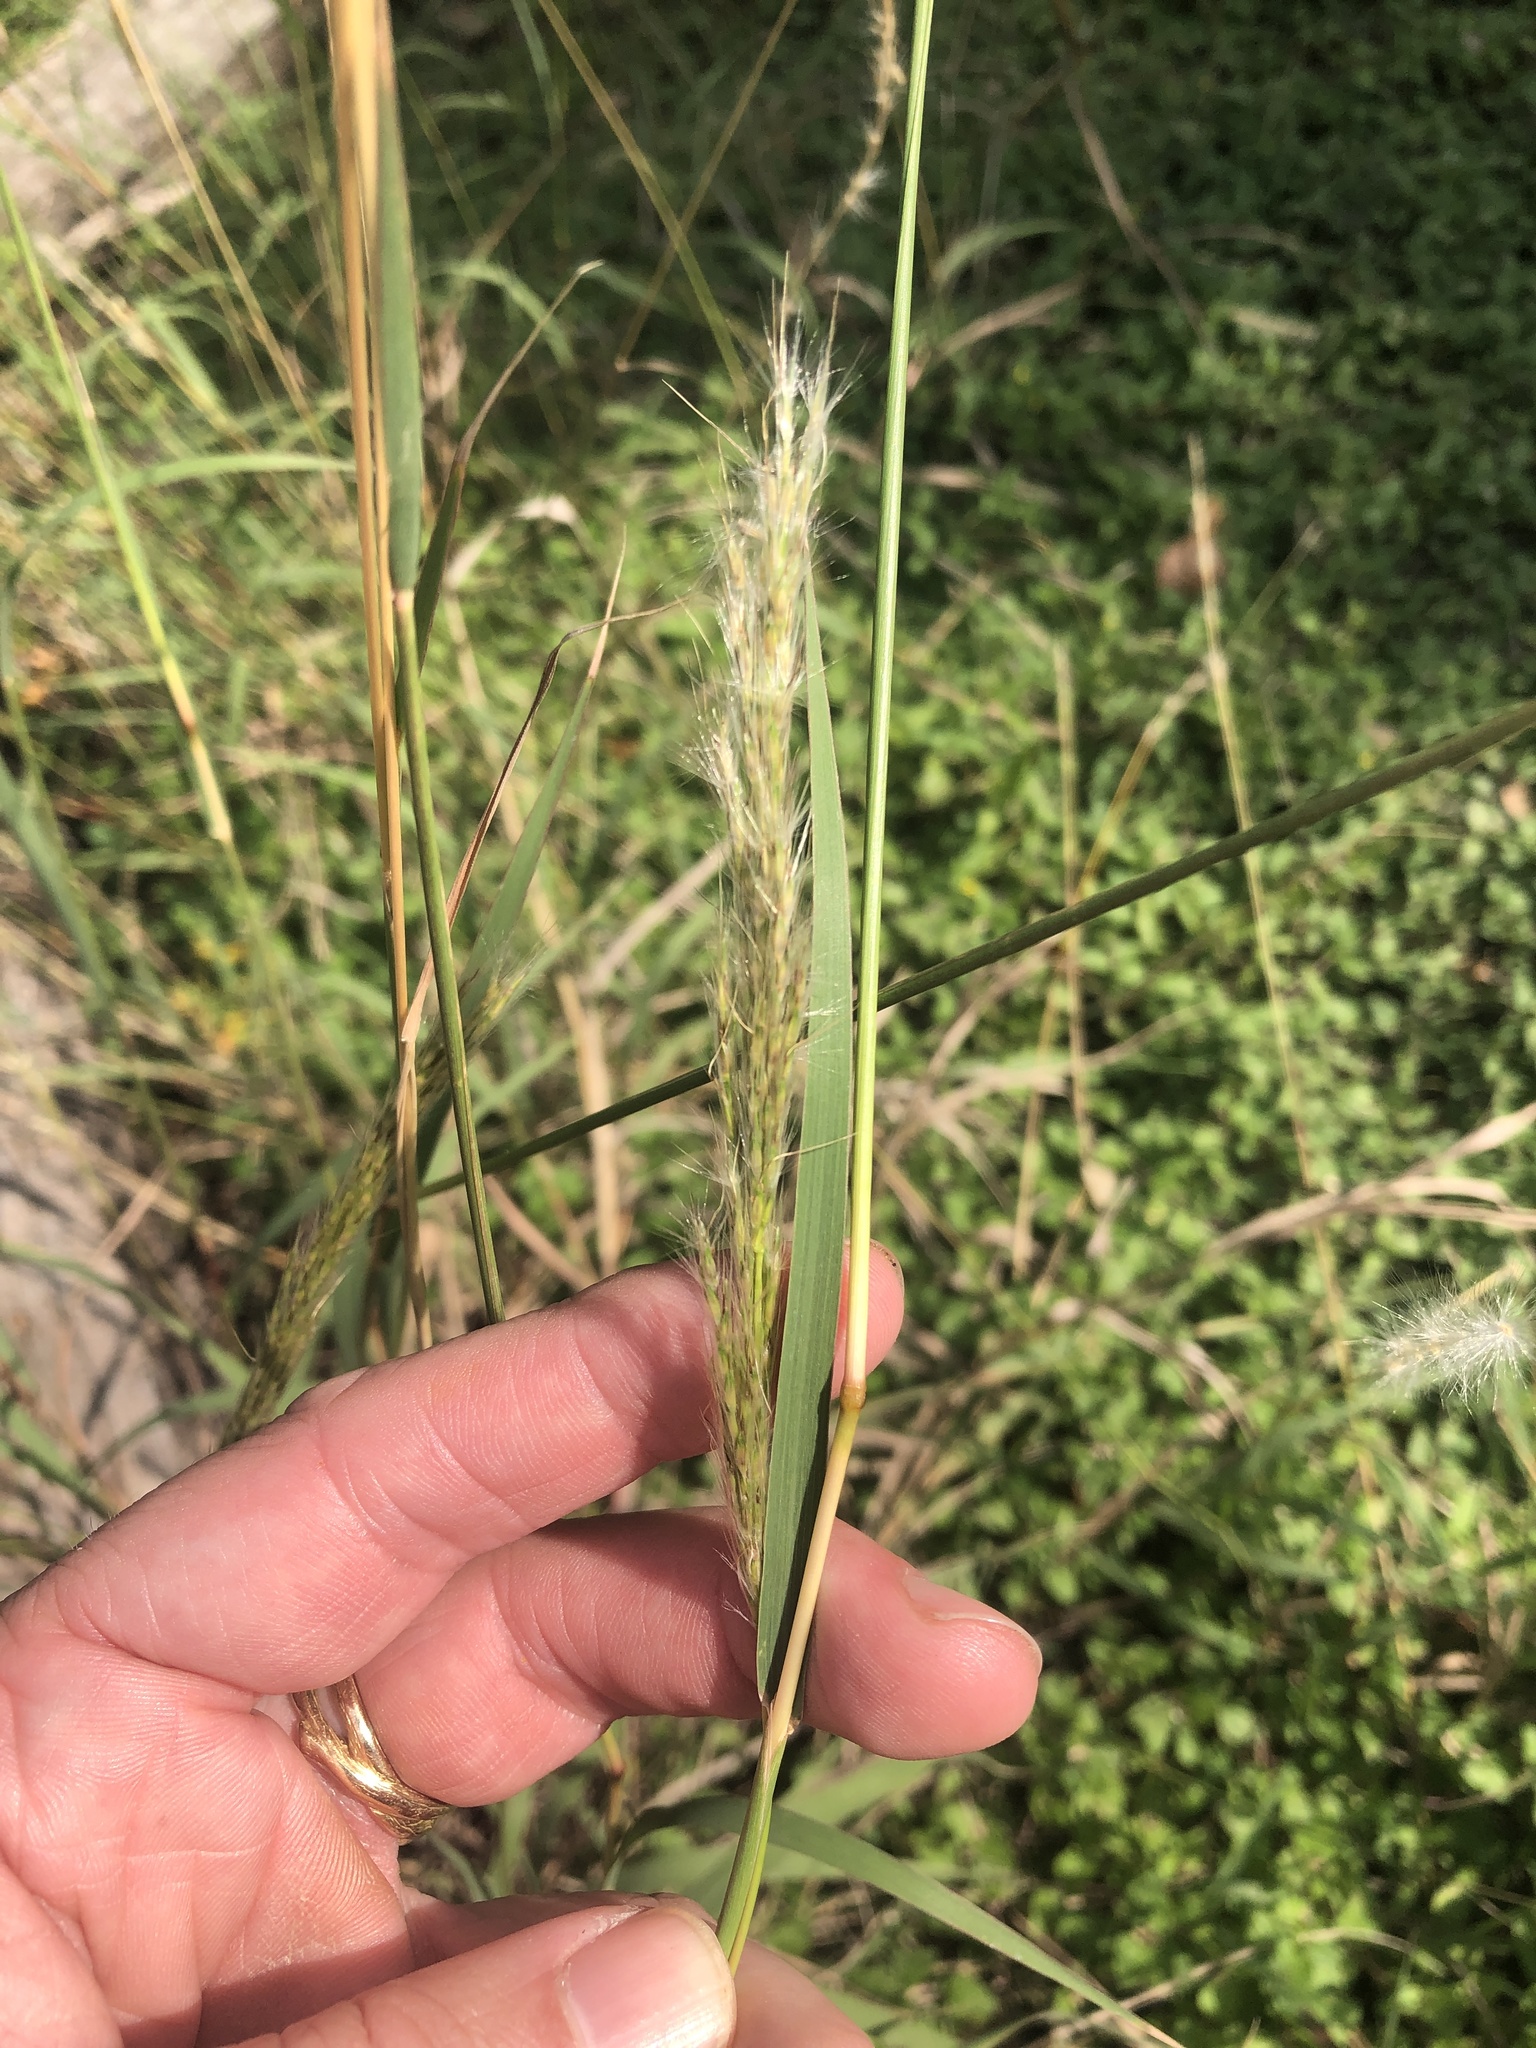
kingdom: Plantae
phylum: Tracheophyta
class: Liliopsida
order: Poales
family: Poaceae
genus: Bothriochloa
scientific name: Bothriochloa longipaniculata
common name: Longspike silver bluestem
